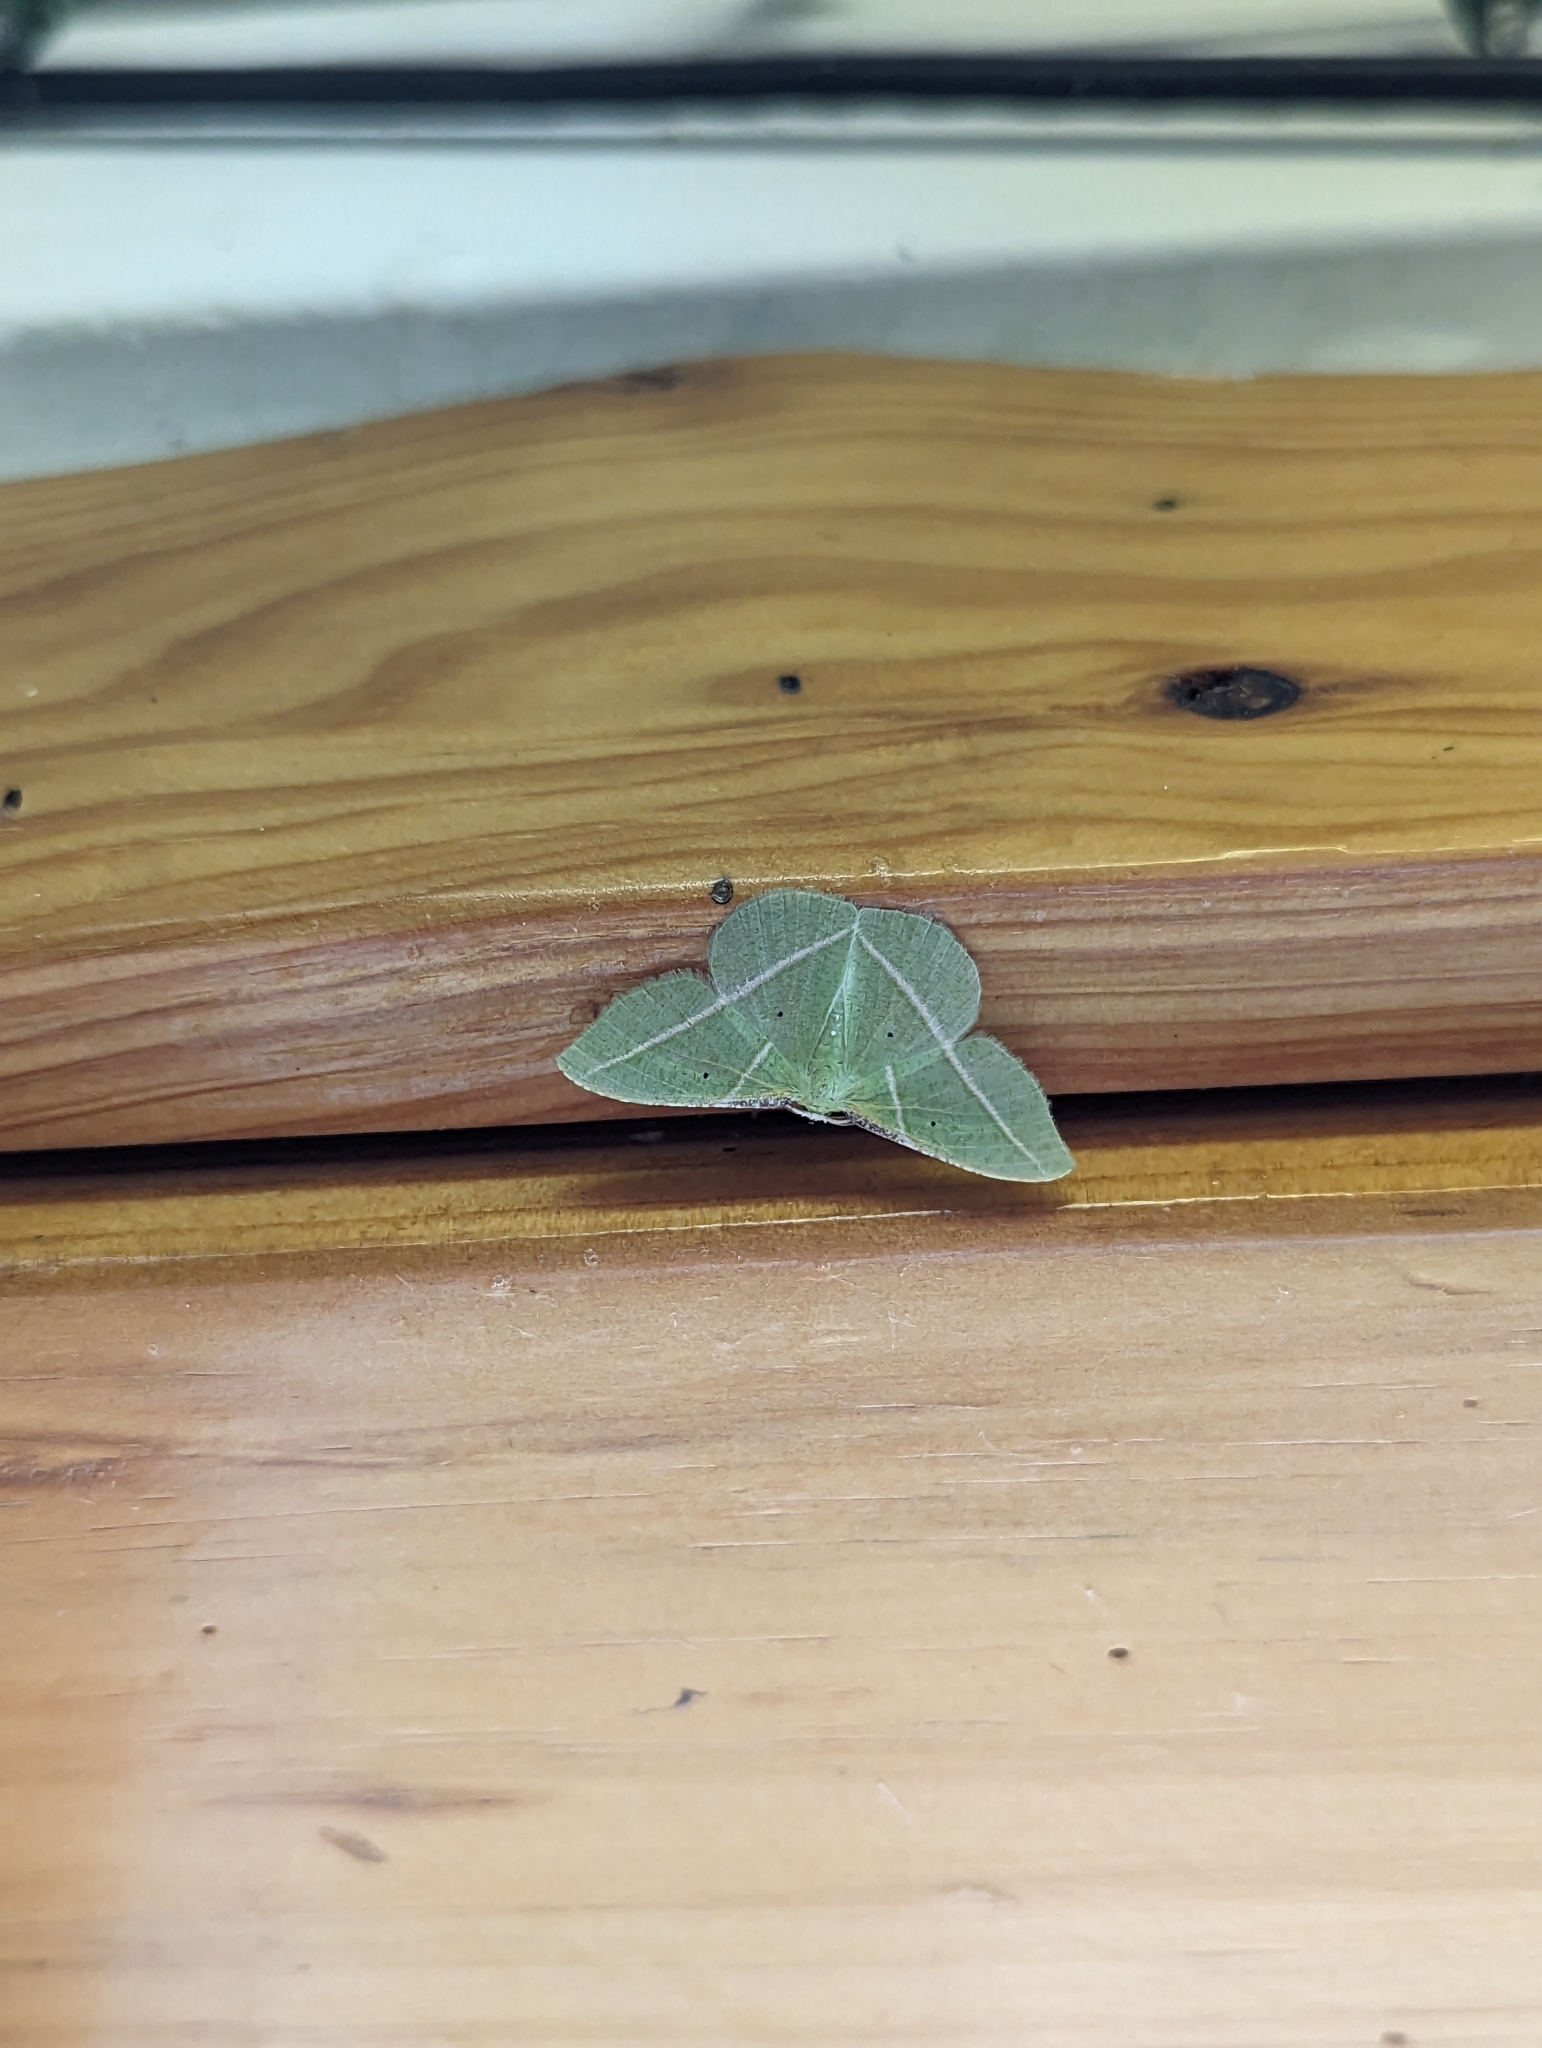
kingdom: Animalia
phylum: Arthropoda
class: Insecta
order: Lepidoptera
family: Geometridae
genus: Dichorda
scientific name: Dichorda illustraria
